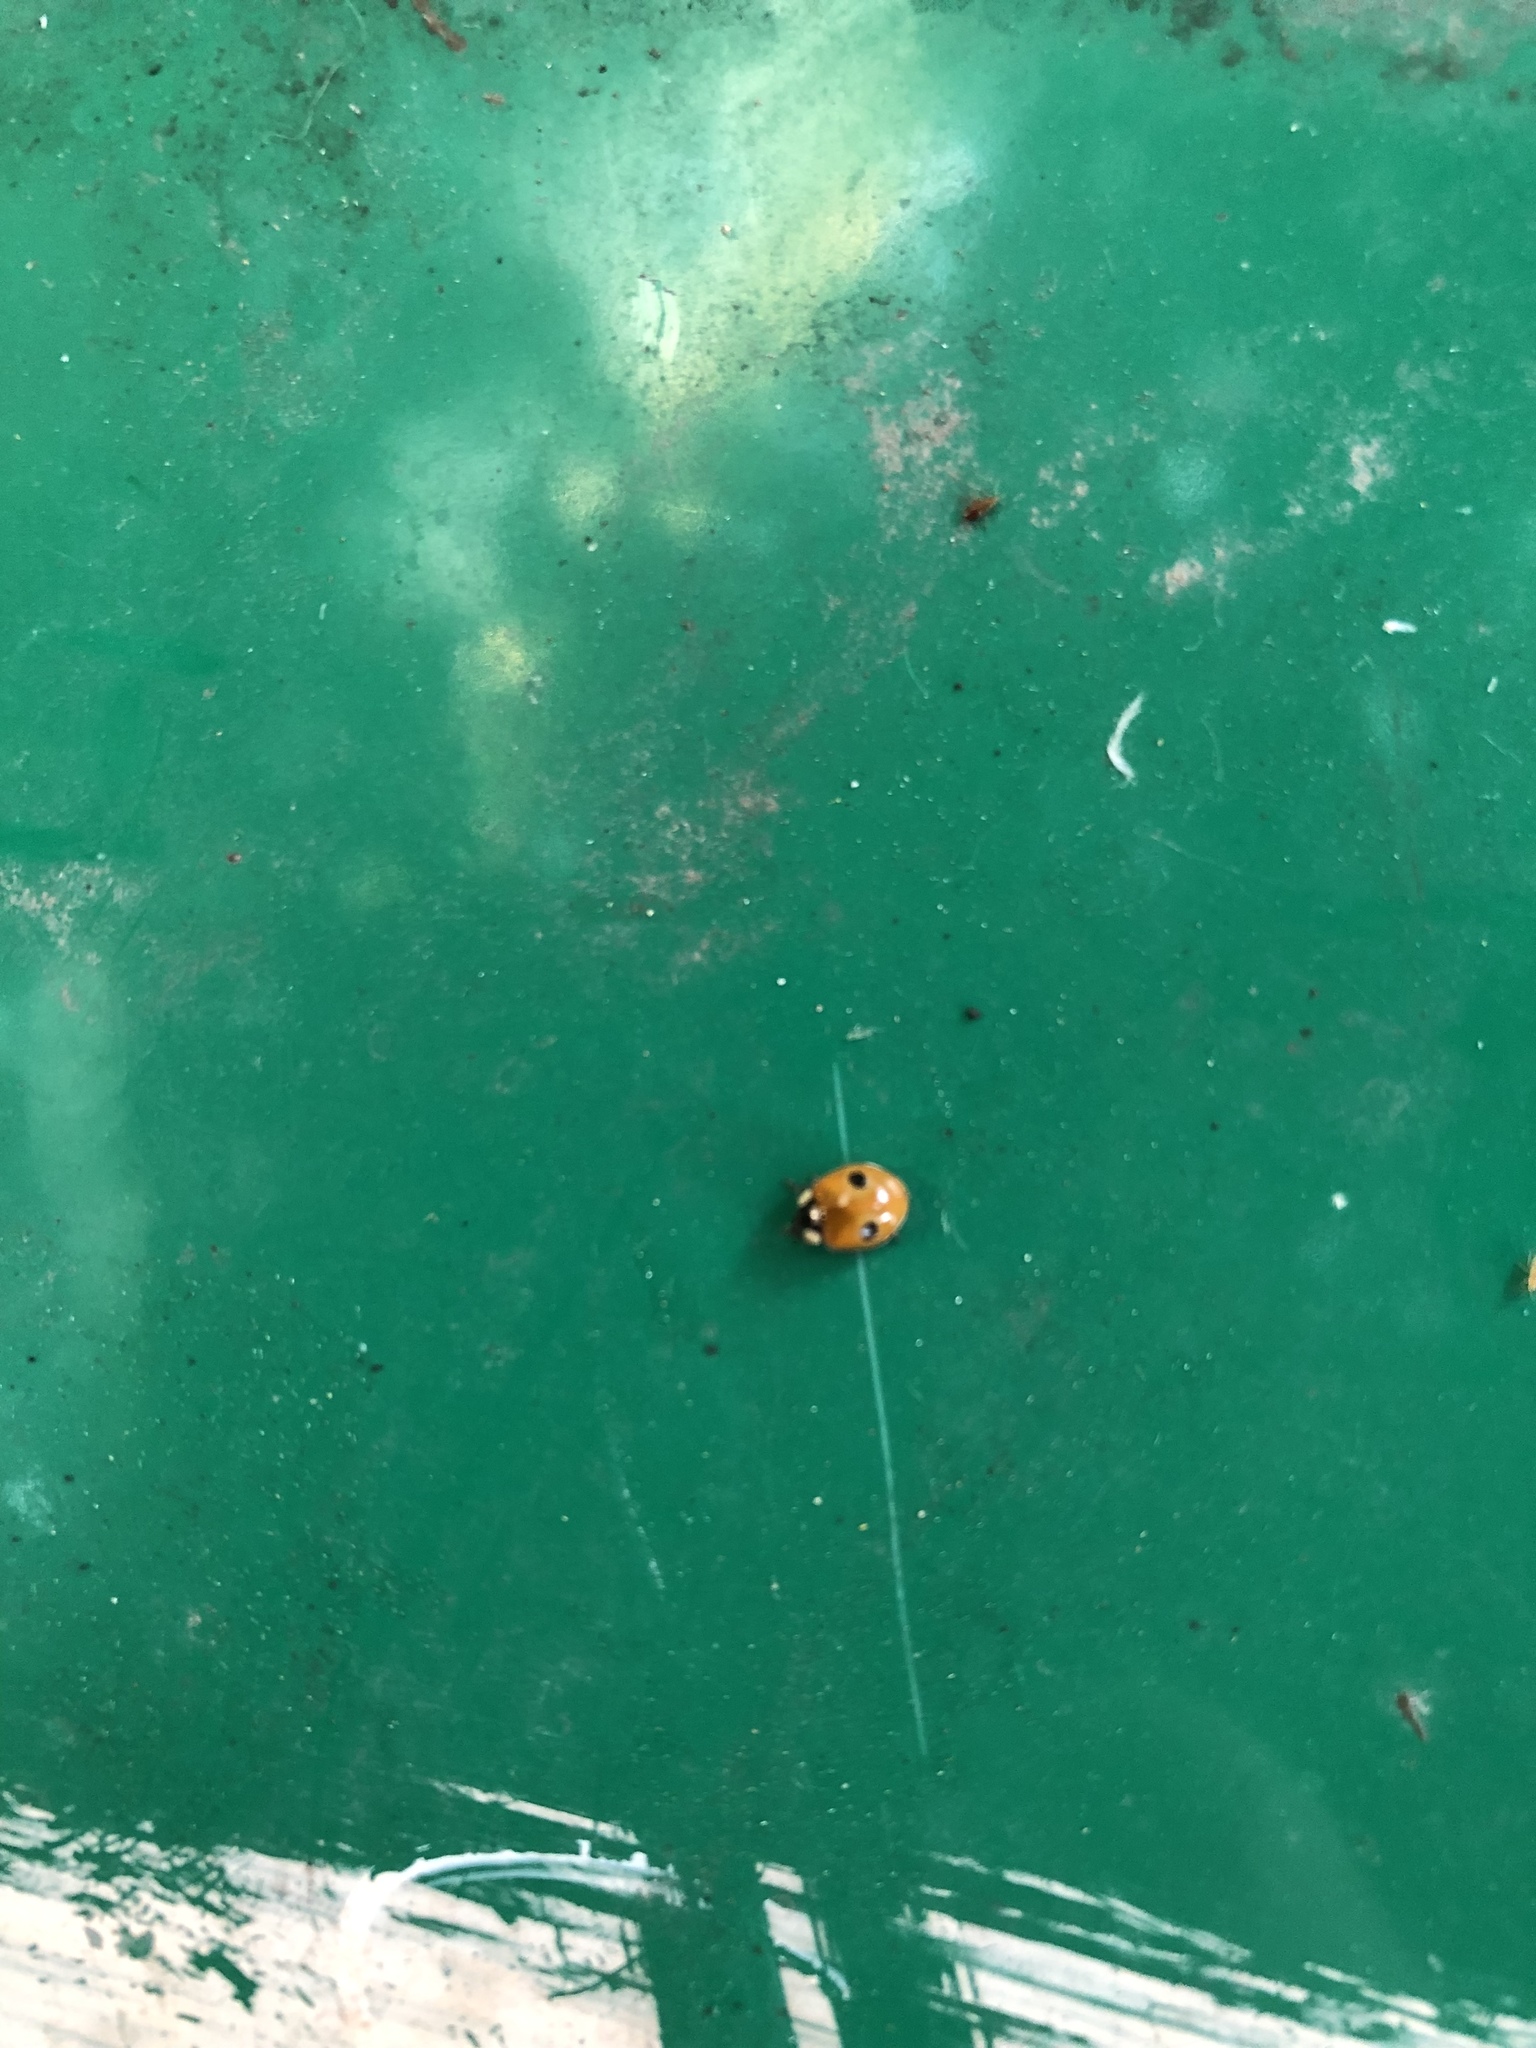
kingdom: Animalia
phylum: Arthropoda
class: Insecta
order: Coleoptera
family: Coccinellidae
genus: Adalia
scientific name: Adalia bipunctata
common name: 2-spot ladybird
